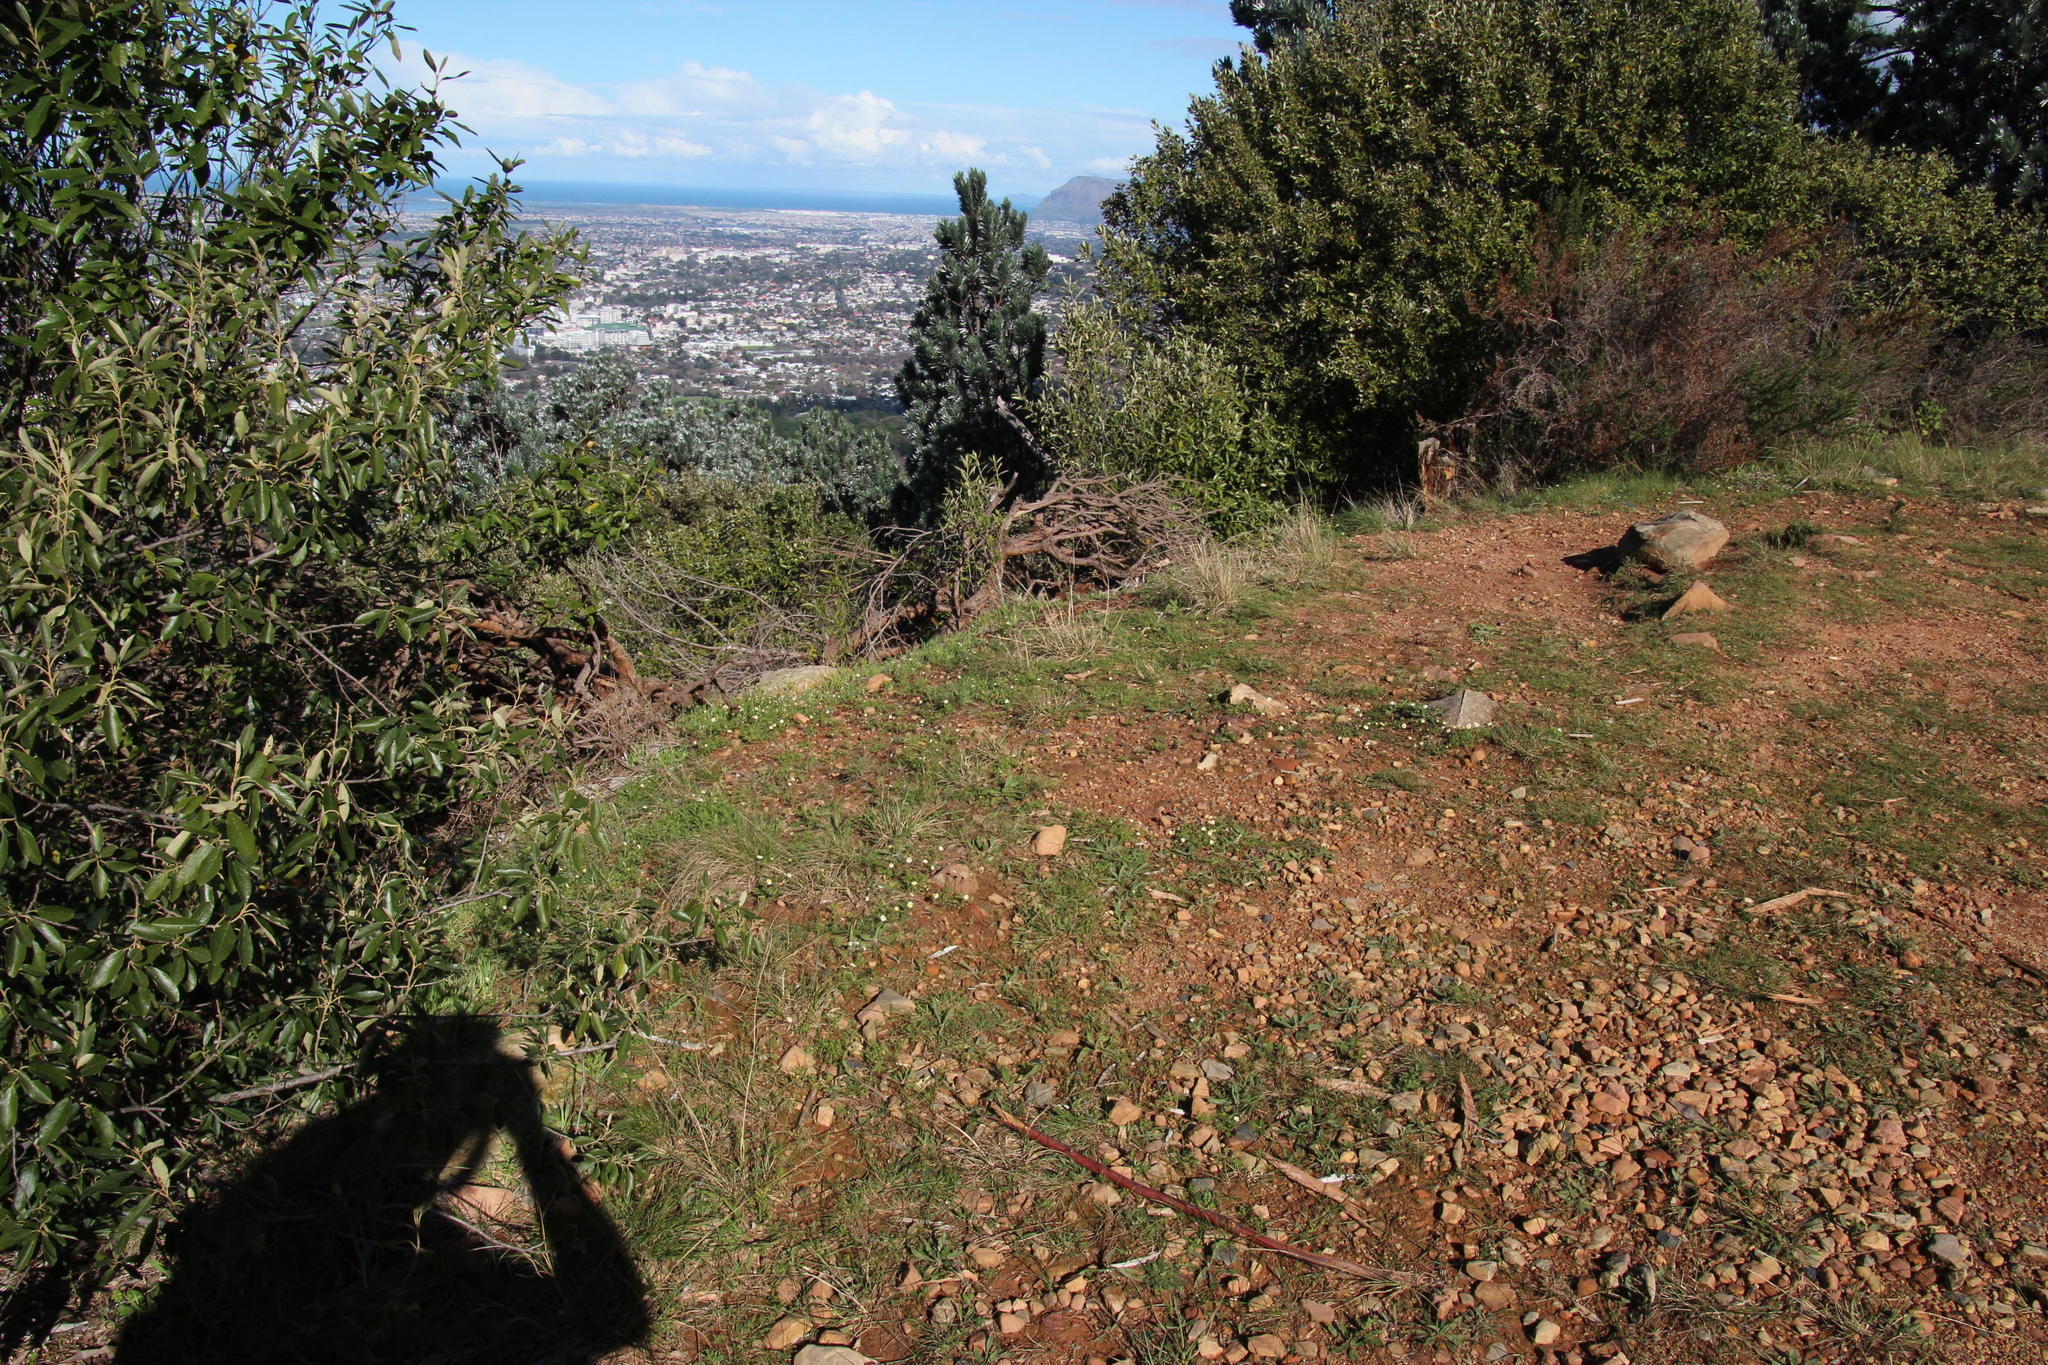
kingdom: Plantae
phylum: Tracheophyta
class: Magnoliopsida
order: Asterales
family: Asteraceae
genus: Cotula
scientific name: Cotula turbinata
